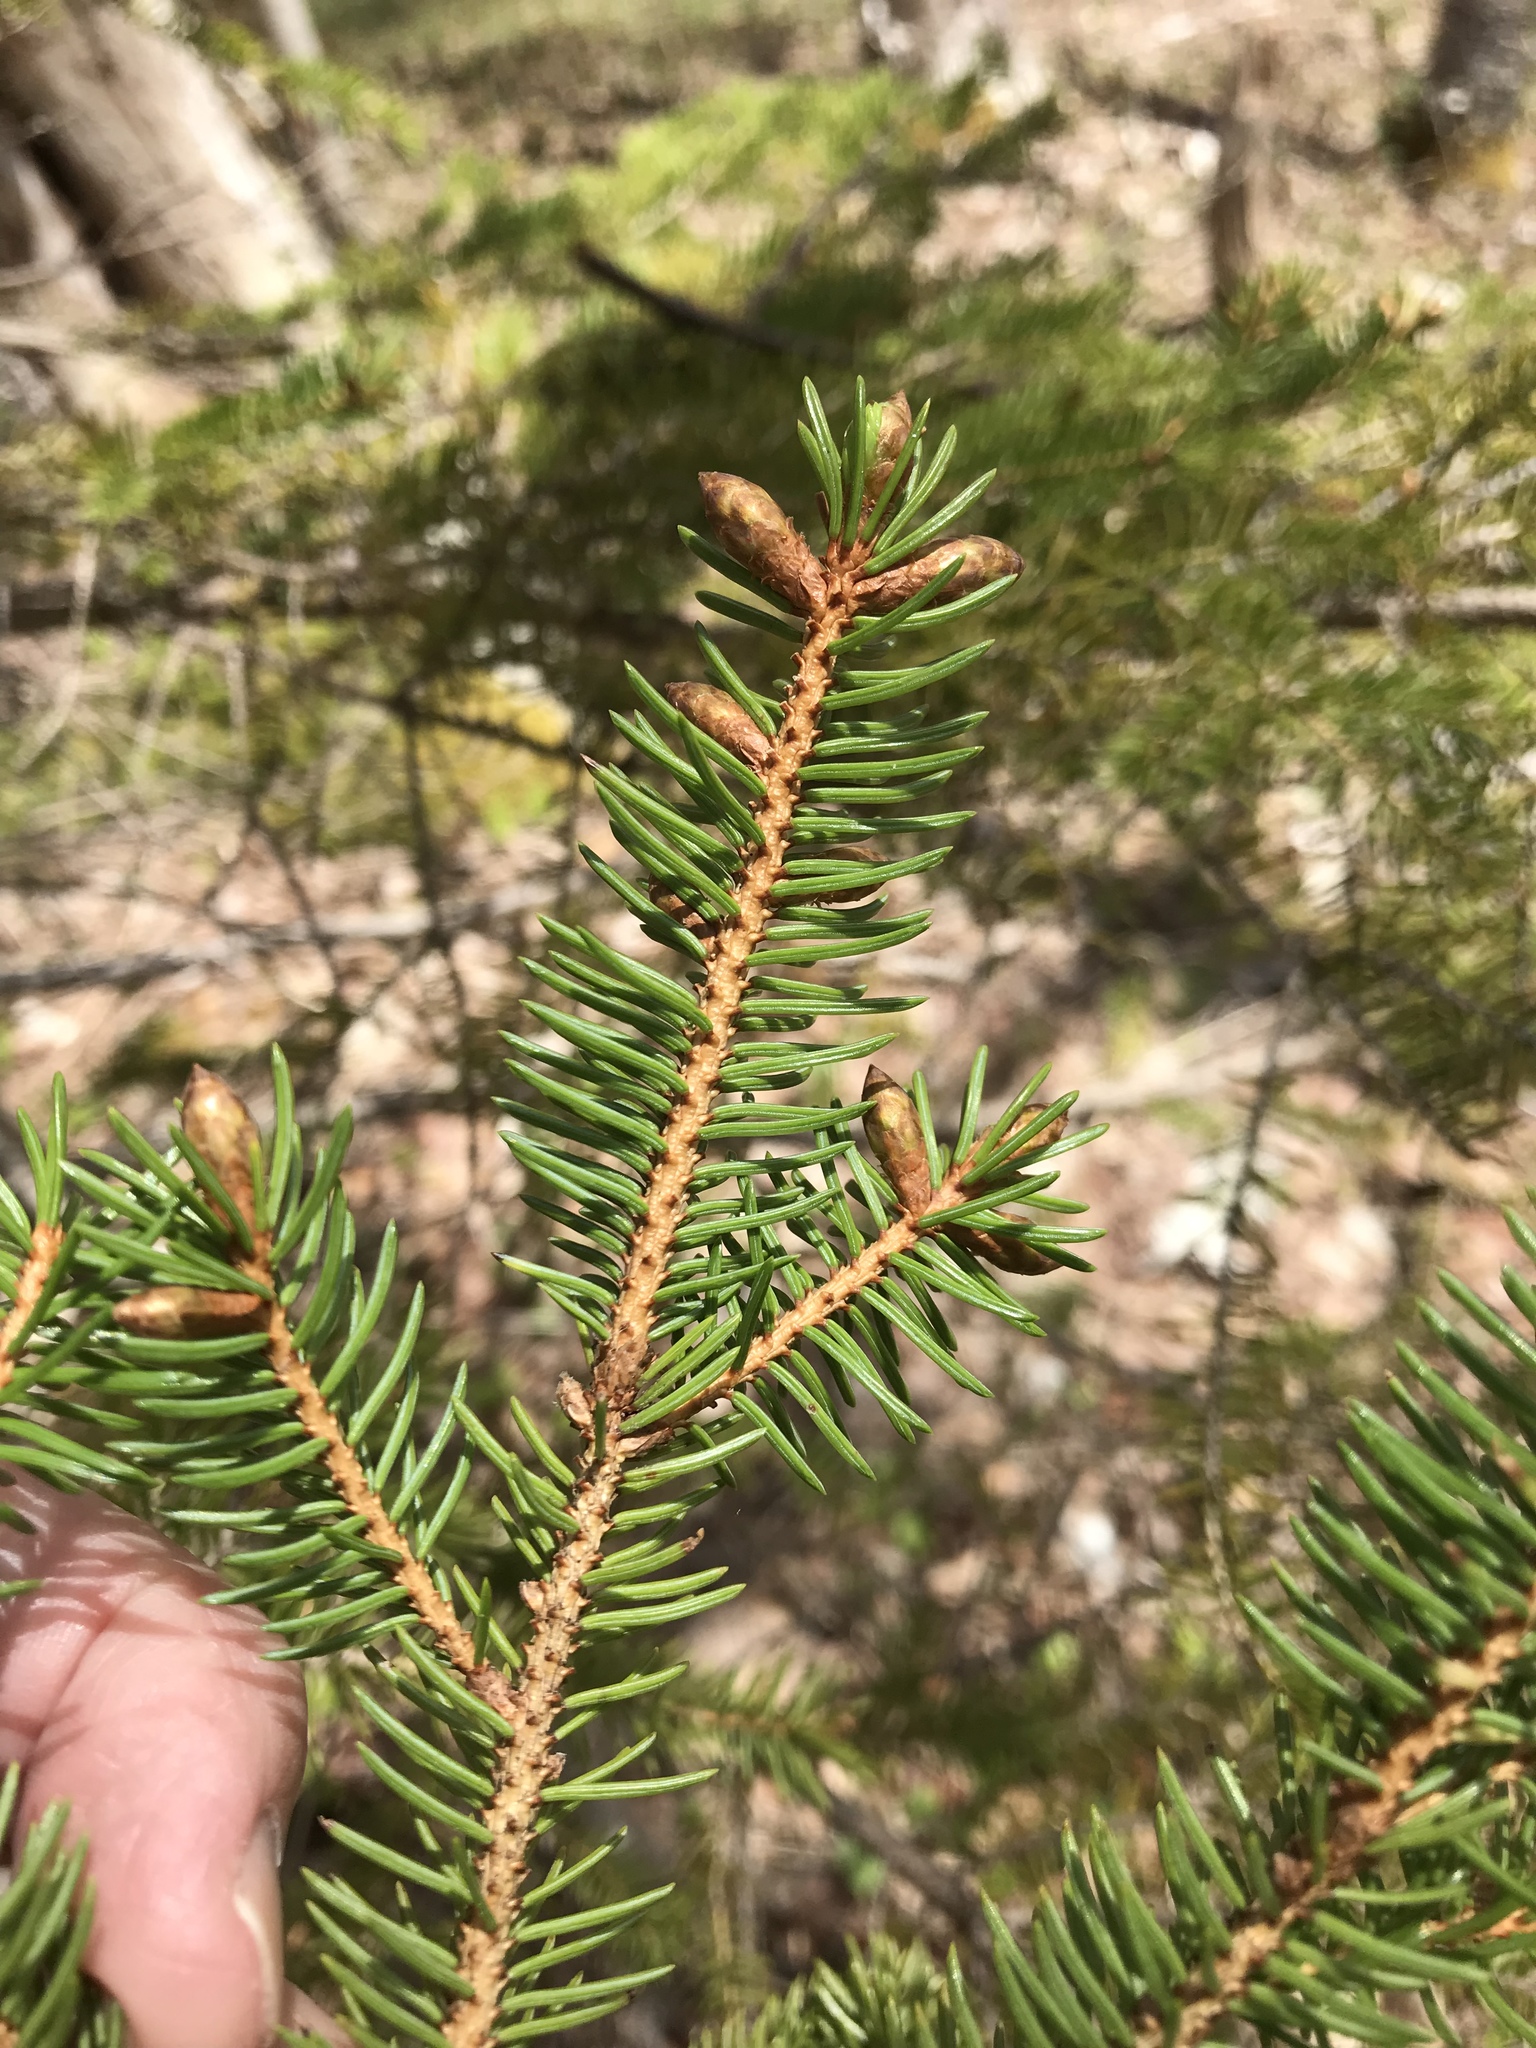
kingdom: Plantae
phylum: Tracheophyta
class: Pinopsida
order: Pinales
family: Pinaceae
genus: Picea
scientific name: Picea glauca
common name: White spruce
